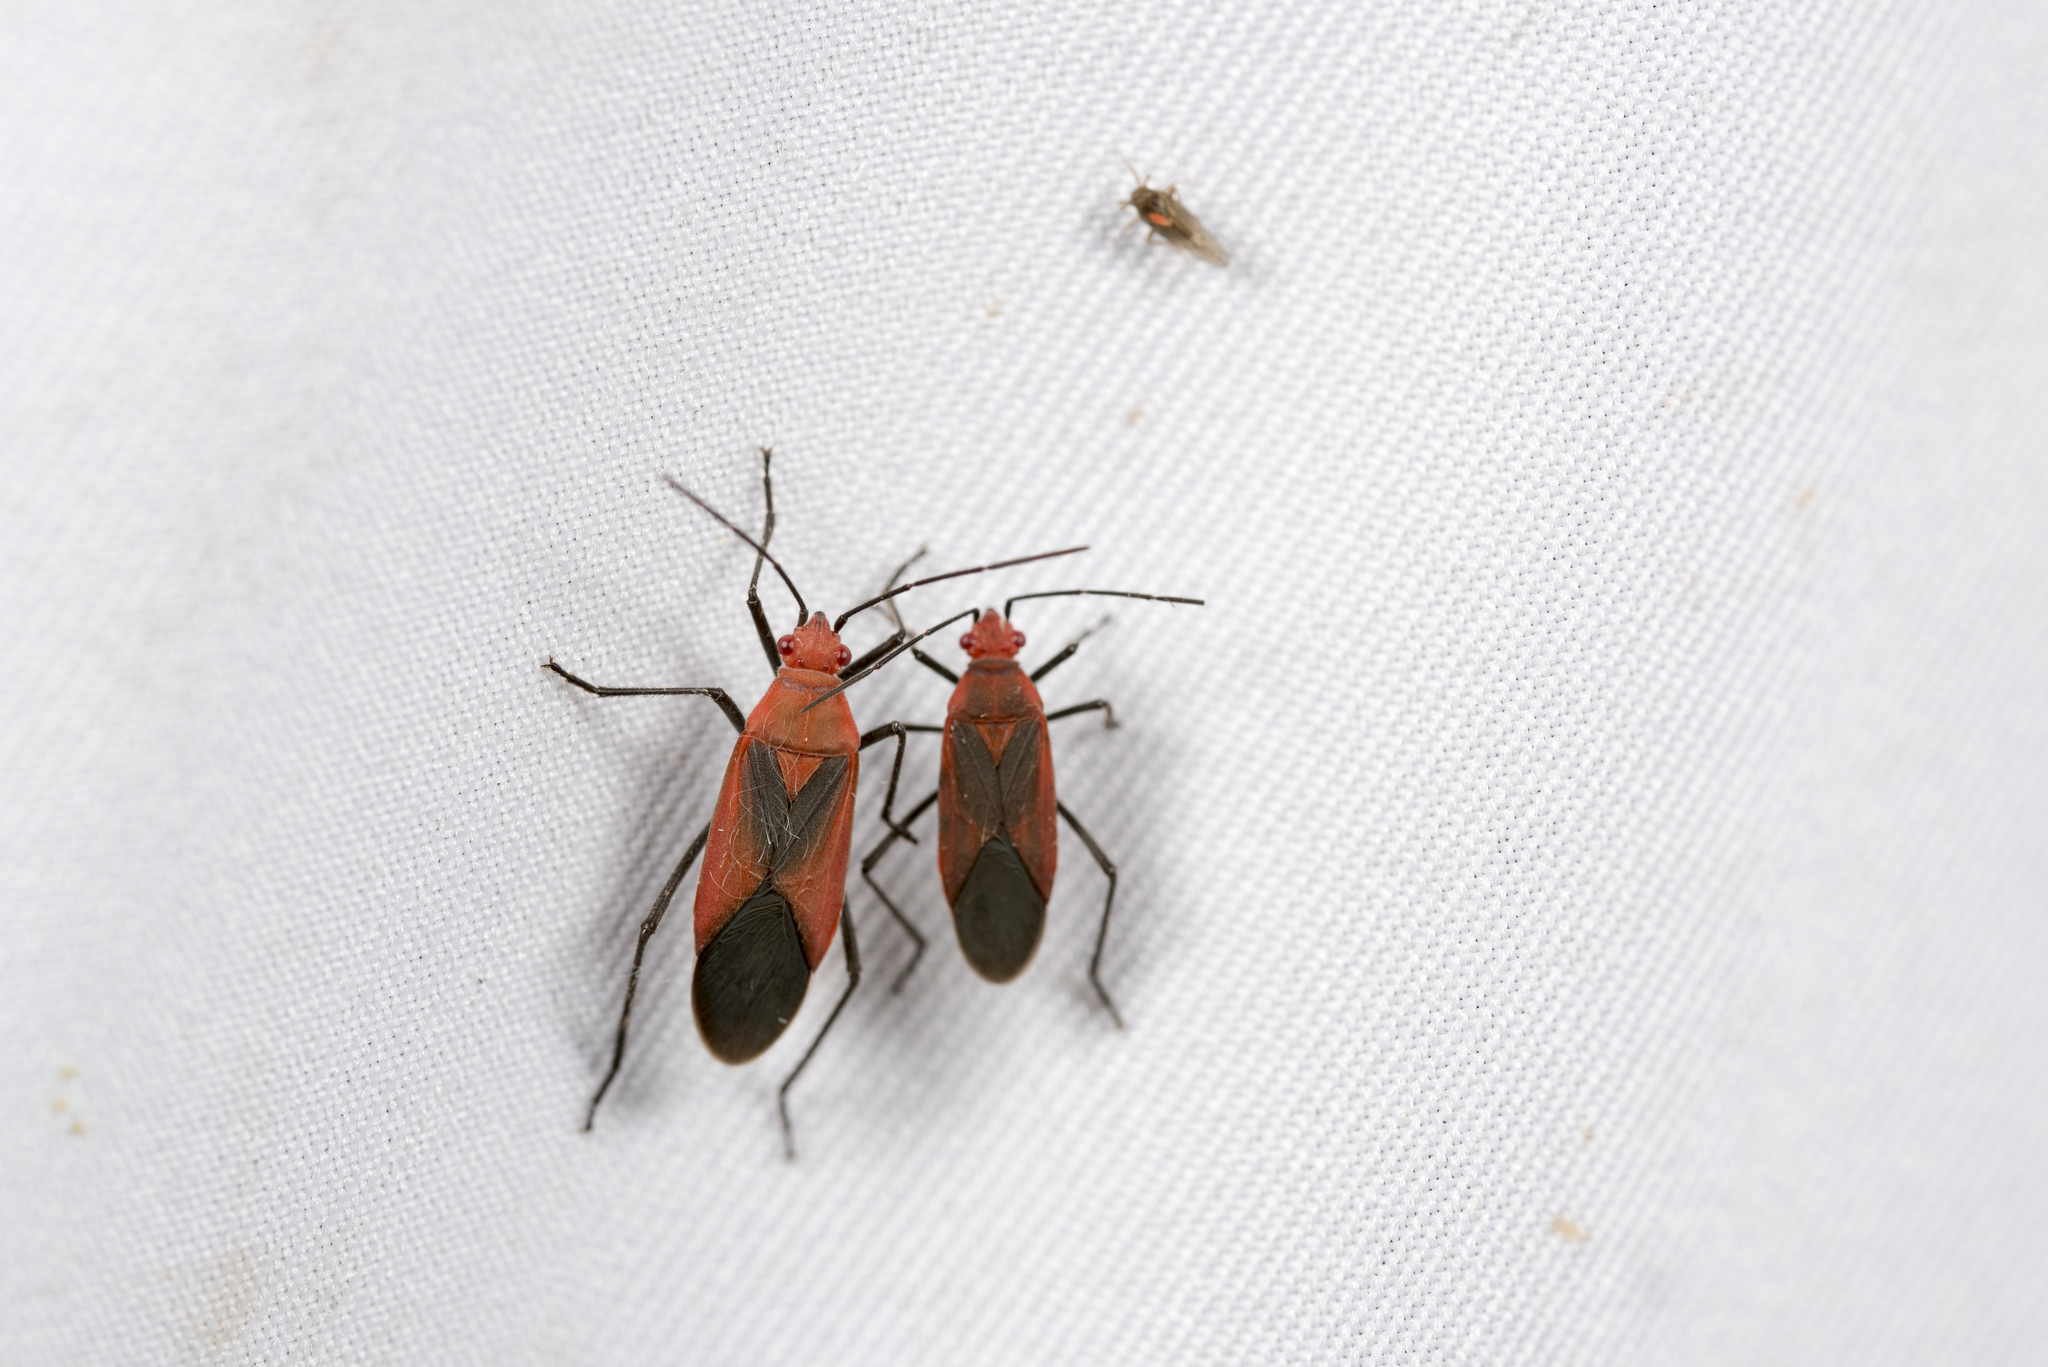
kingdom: Animalia
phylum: Arthropoda
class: Insecta
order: Hemiptera
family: Rhopalidae
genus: Leptocoris
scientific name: Leptocoris vicinus
